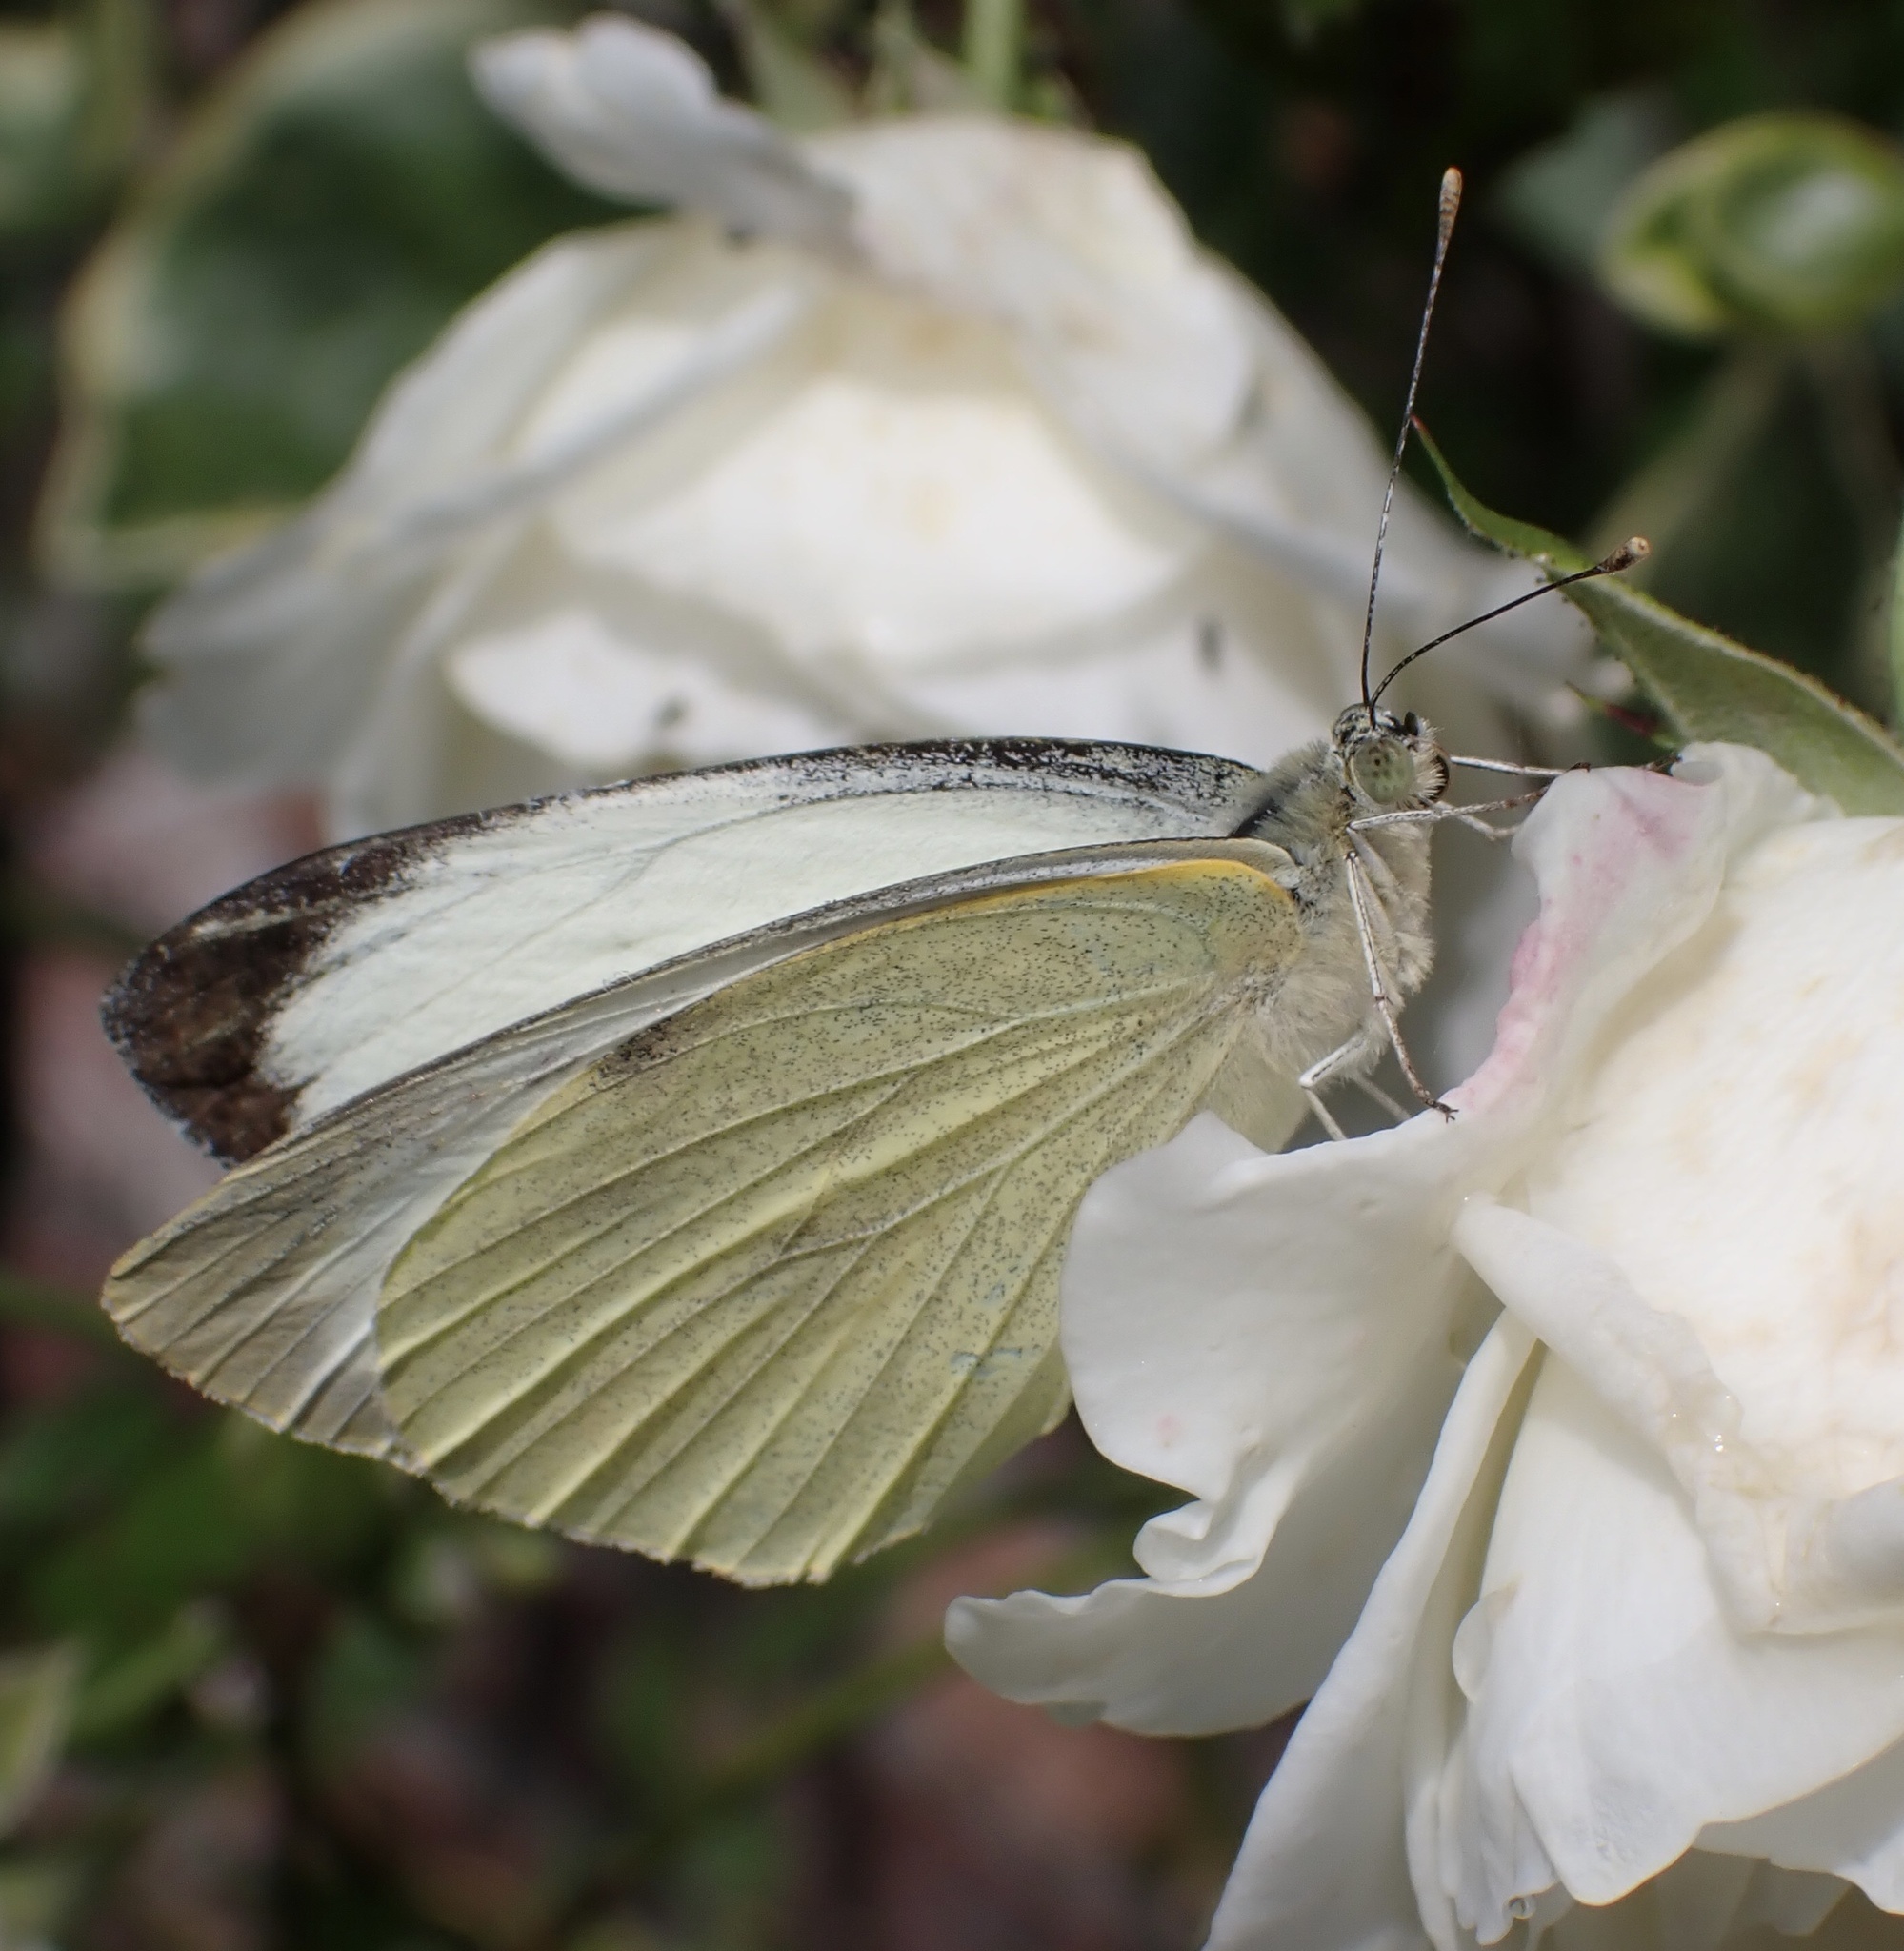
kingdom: Animalia
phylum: Arthropoda
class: Insecta
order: Lepidoptera
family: Pieridae
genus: Pieris
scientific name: Pieris brassicae
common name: Large white
